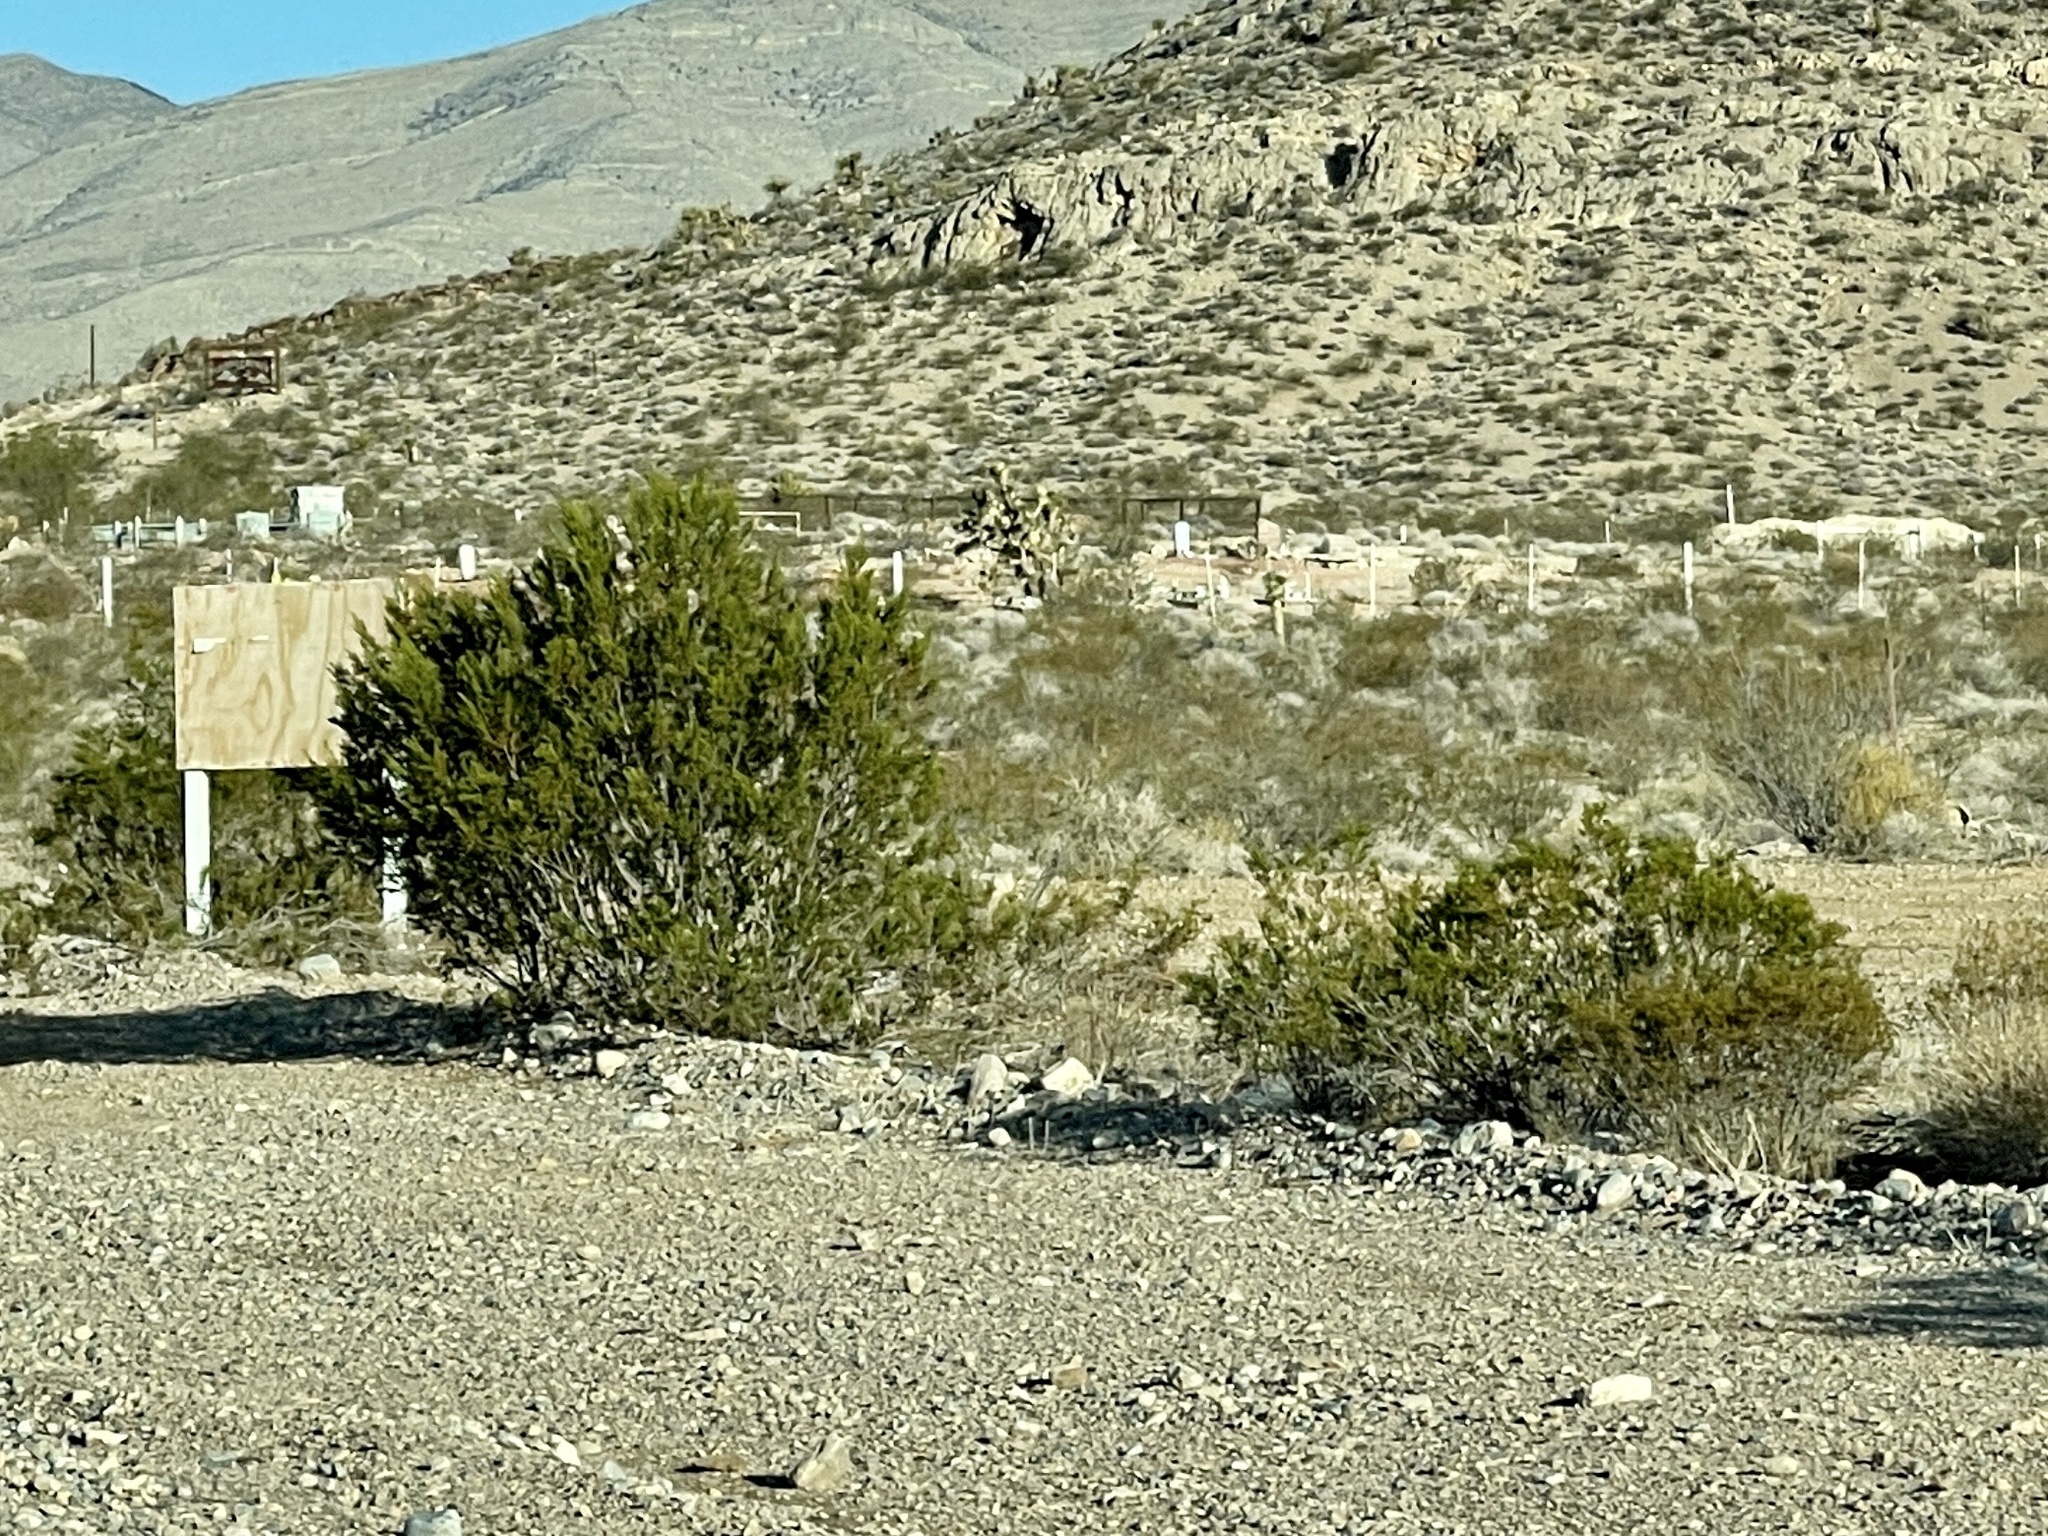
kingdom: Plantae
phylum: Tracheophyta
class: Magnoliopsida
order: Zygophyllales
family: Zygophyllaceae
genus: Larrea
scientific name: Larrea tridentata
